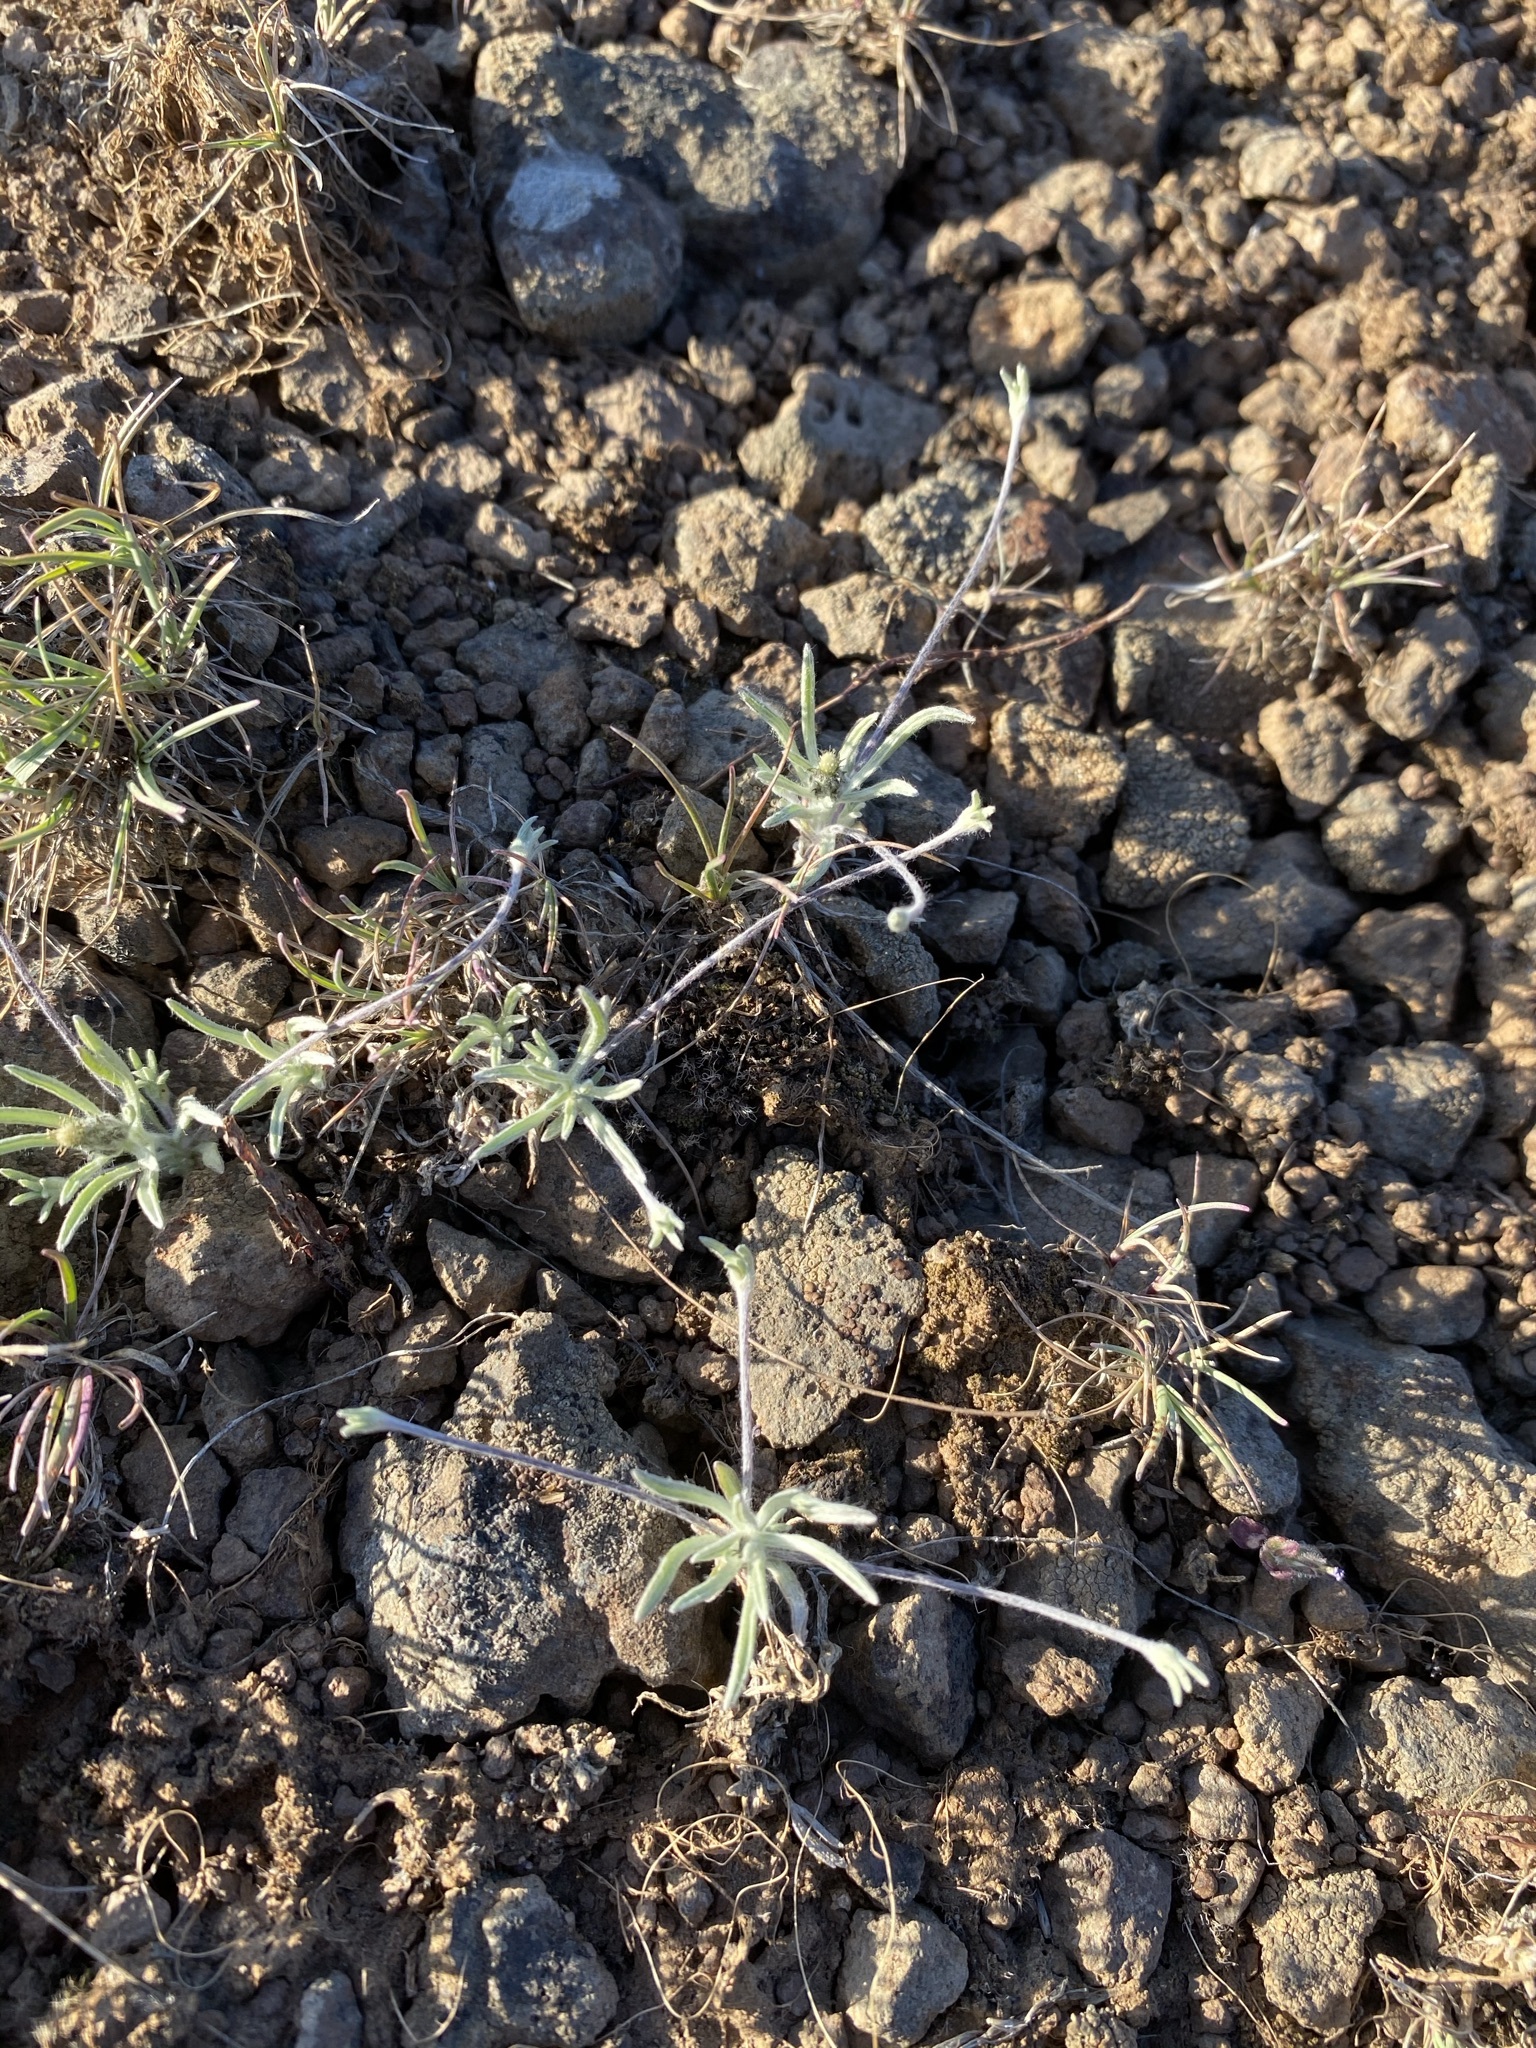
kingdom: Plantae
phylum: Tracheophyta
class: Magnoliopsida
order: Asterales
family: Asteraceae
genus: Antennaria
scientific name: Antennaria flagellaris
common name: Whip pussytoes
